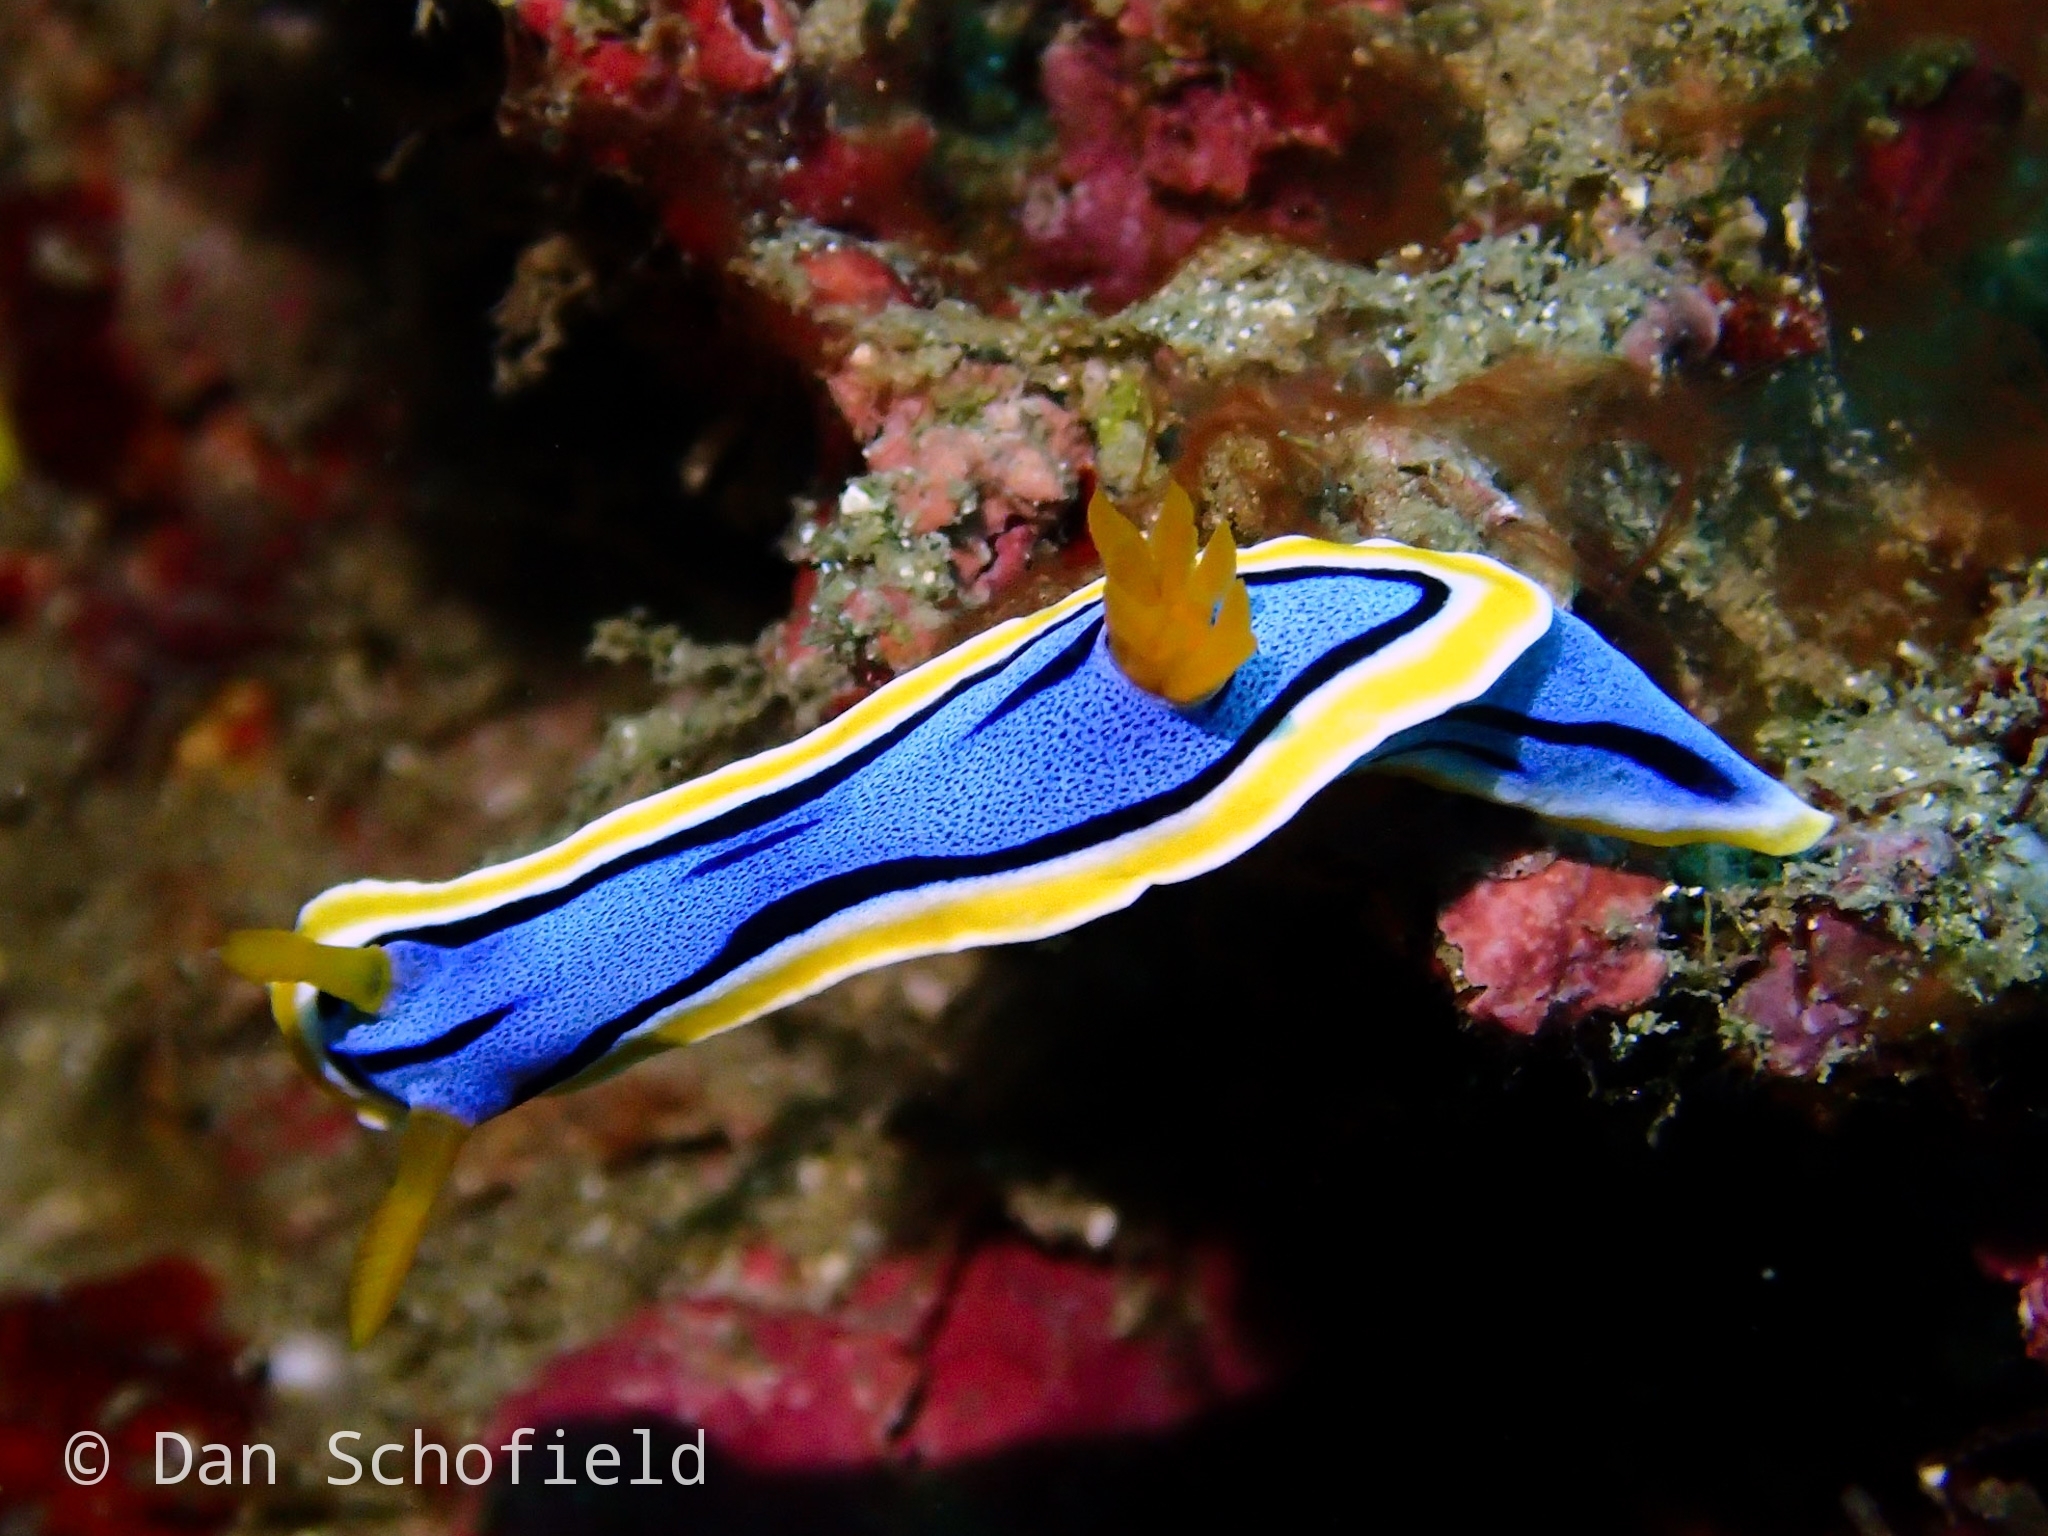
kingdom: Animalia
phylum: Mollusca
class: Gastropoda
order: Nudibranchia
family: Chromodorididae
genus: Chromodoris
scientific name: Chromodoris annae
